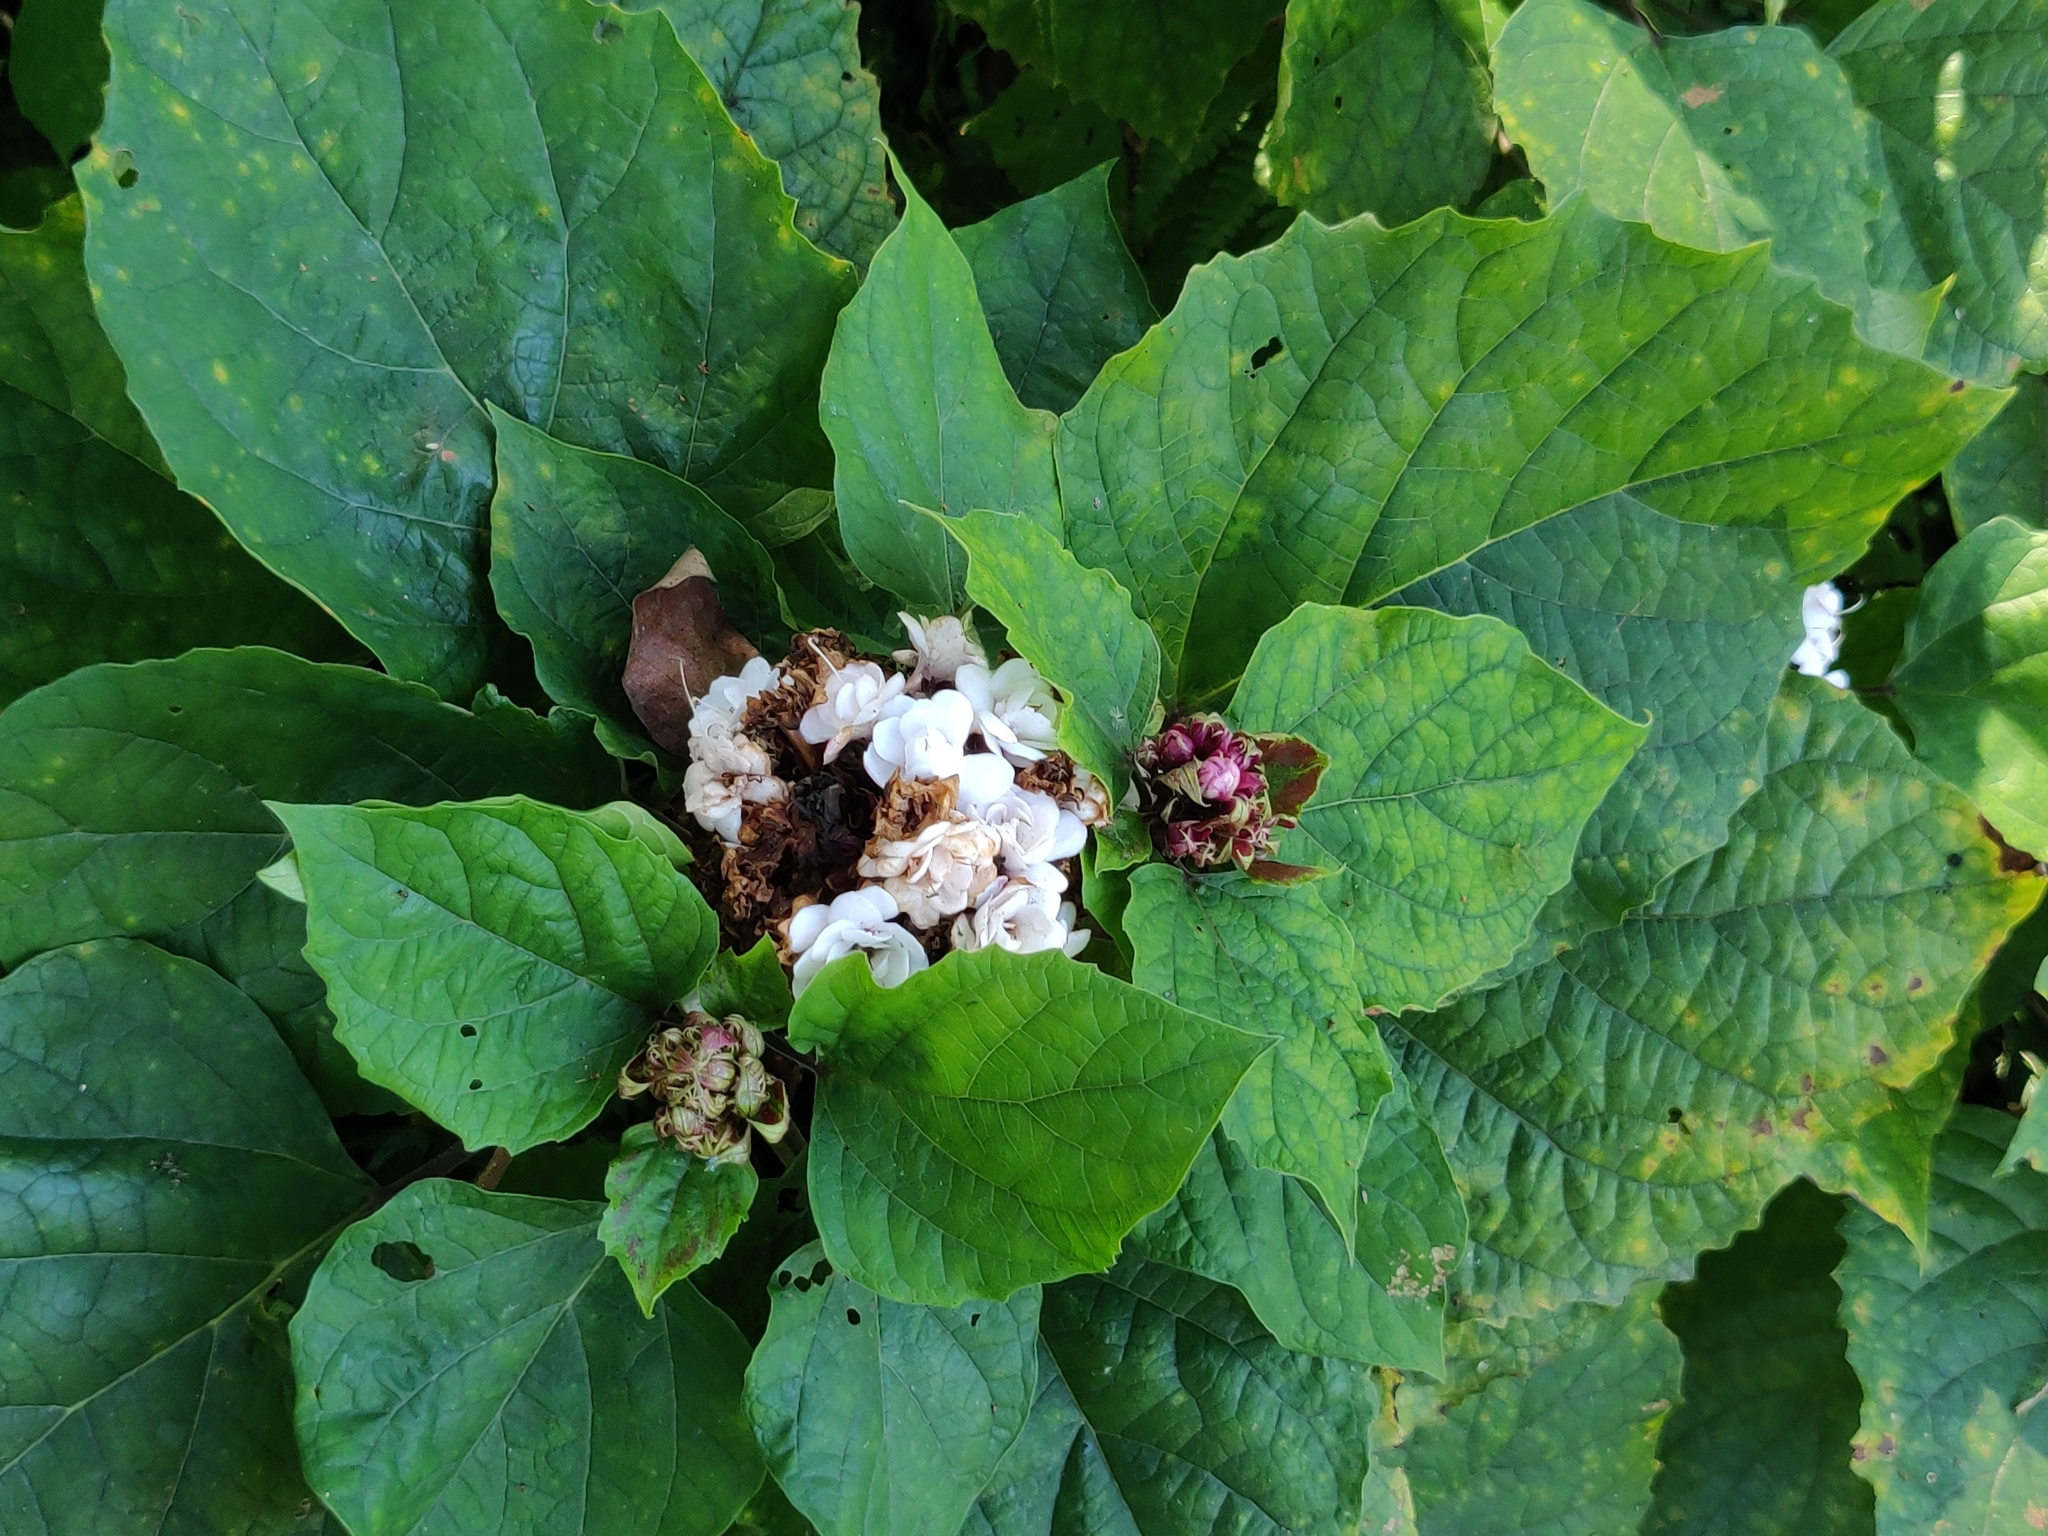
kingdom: Plantae
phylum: Tracheophyta
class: Magnoliopsida
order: Lamiales
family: Lamiaceae
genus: Clerodendrum
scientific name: Clerodendrum chinense
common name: Stickbush
